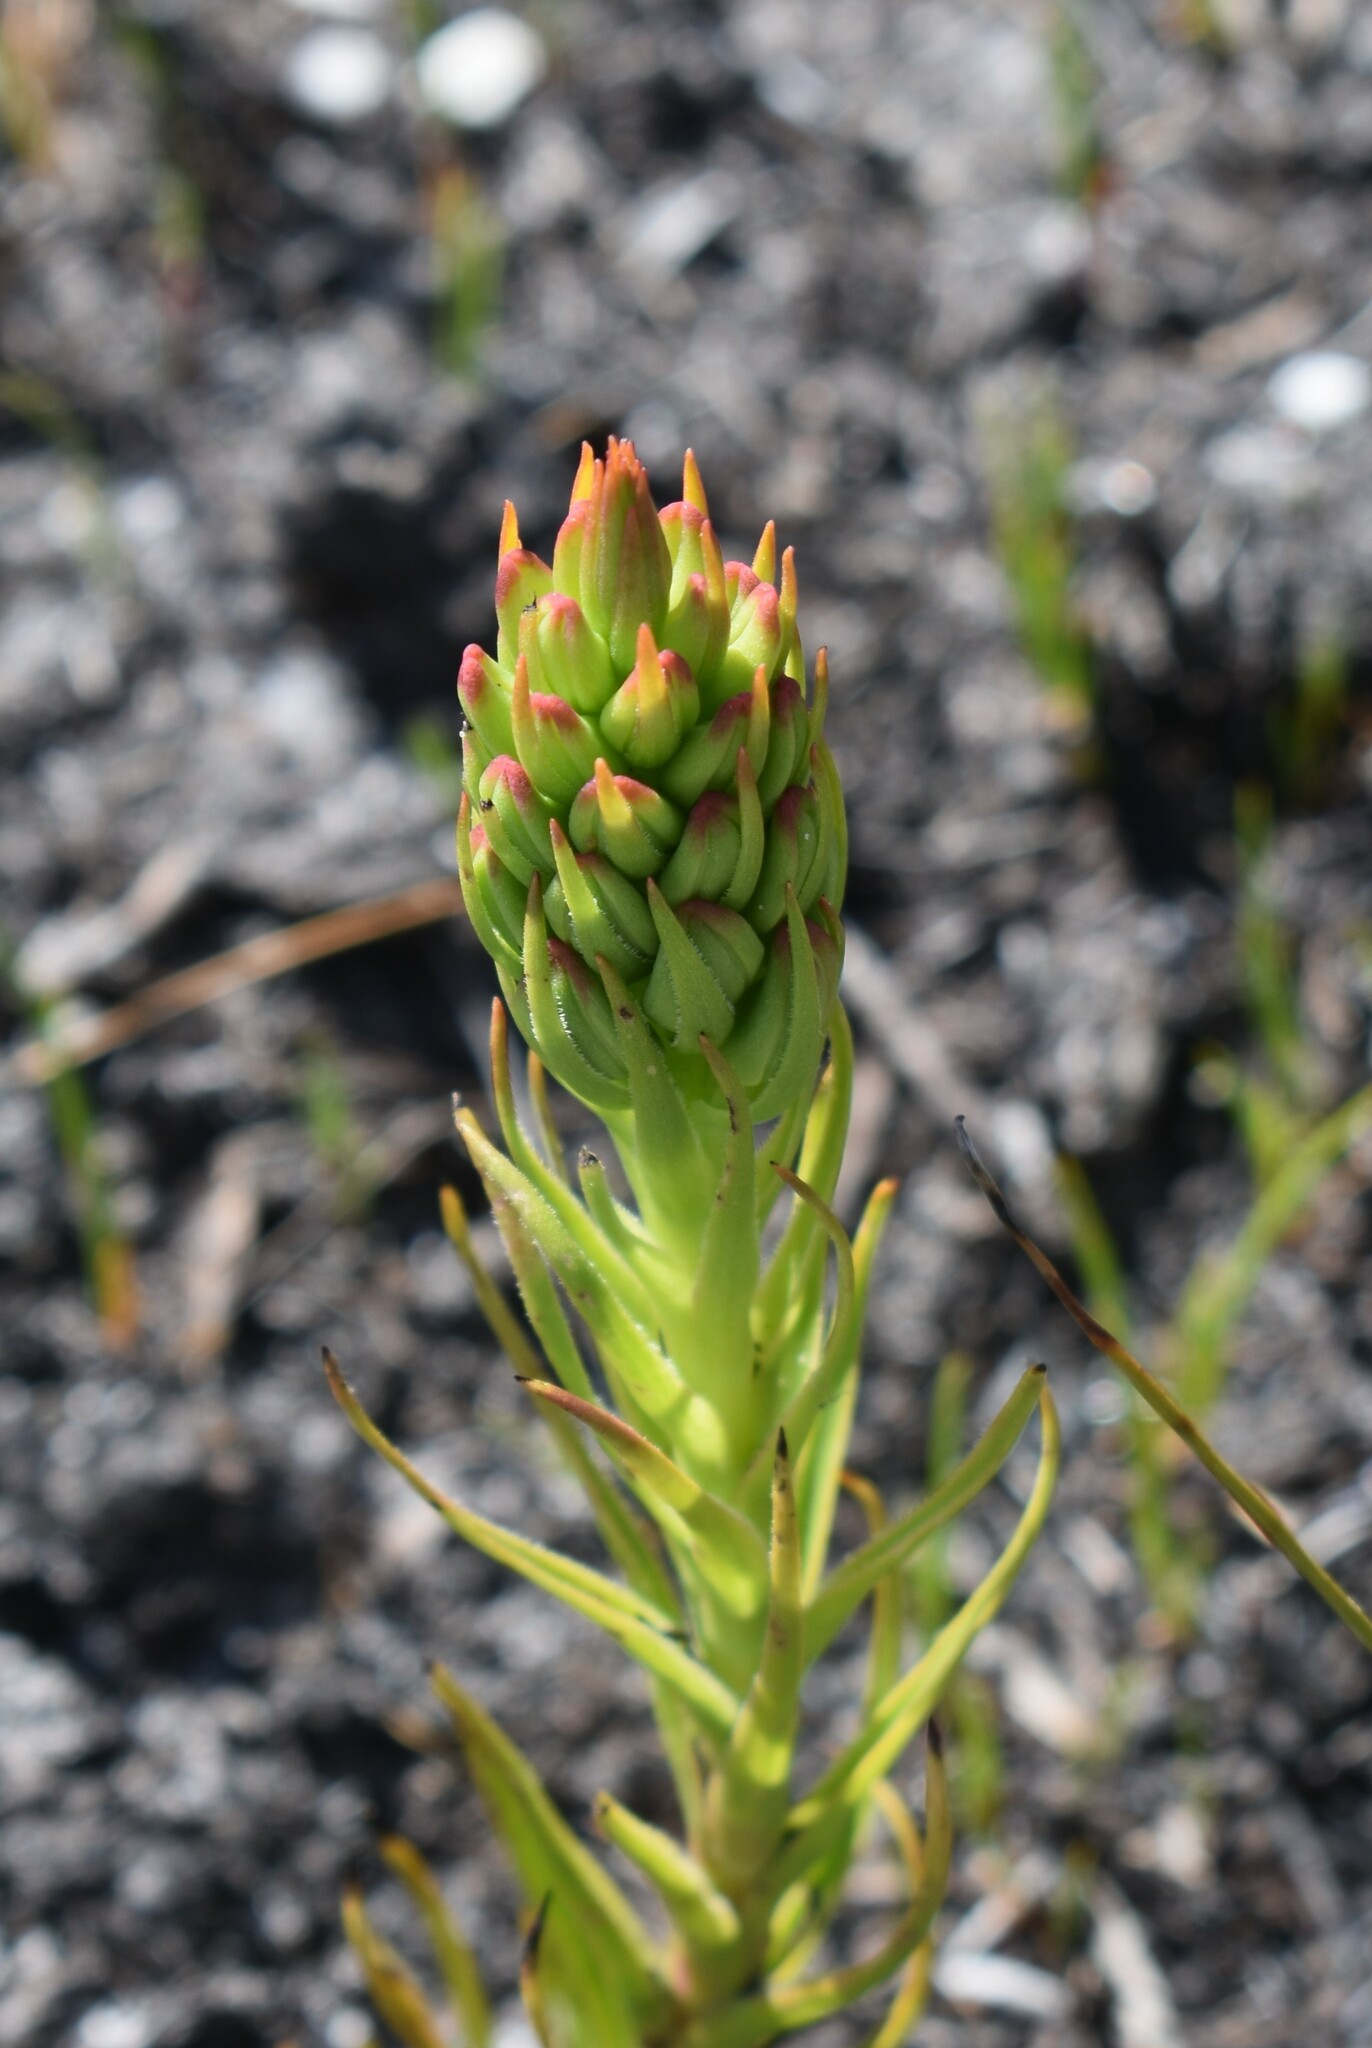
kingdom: Plantae
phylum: Tracheophyta
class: Liliopsida
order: Asparagales
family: Orchidaceae
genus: Ceratandra
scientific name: Ceratandra atrata
